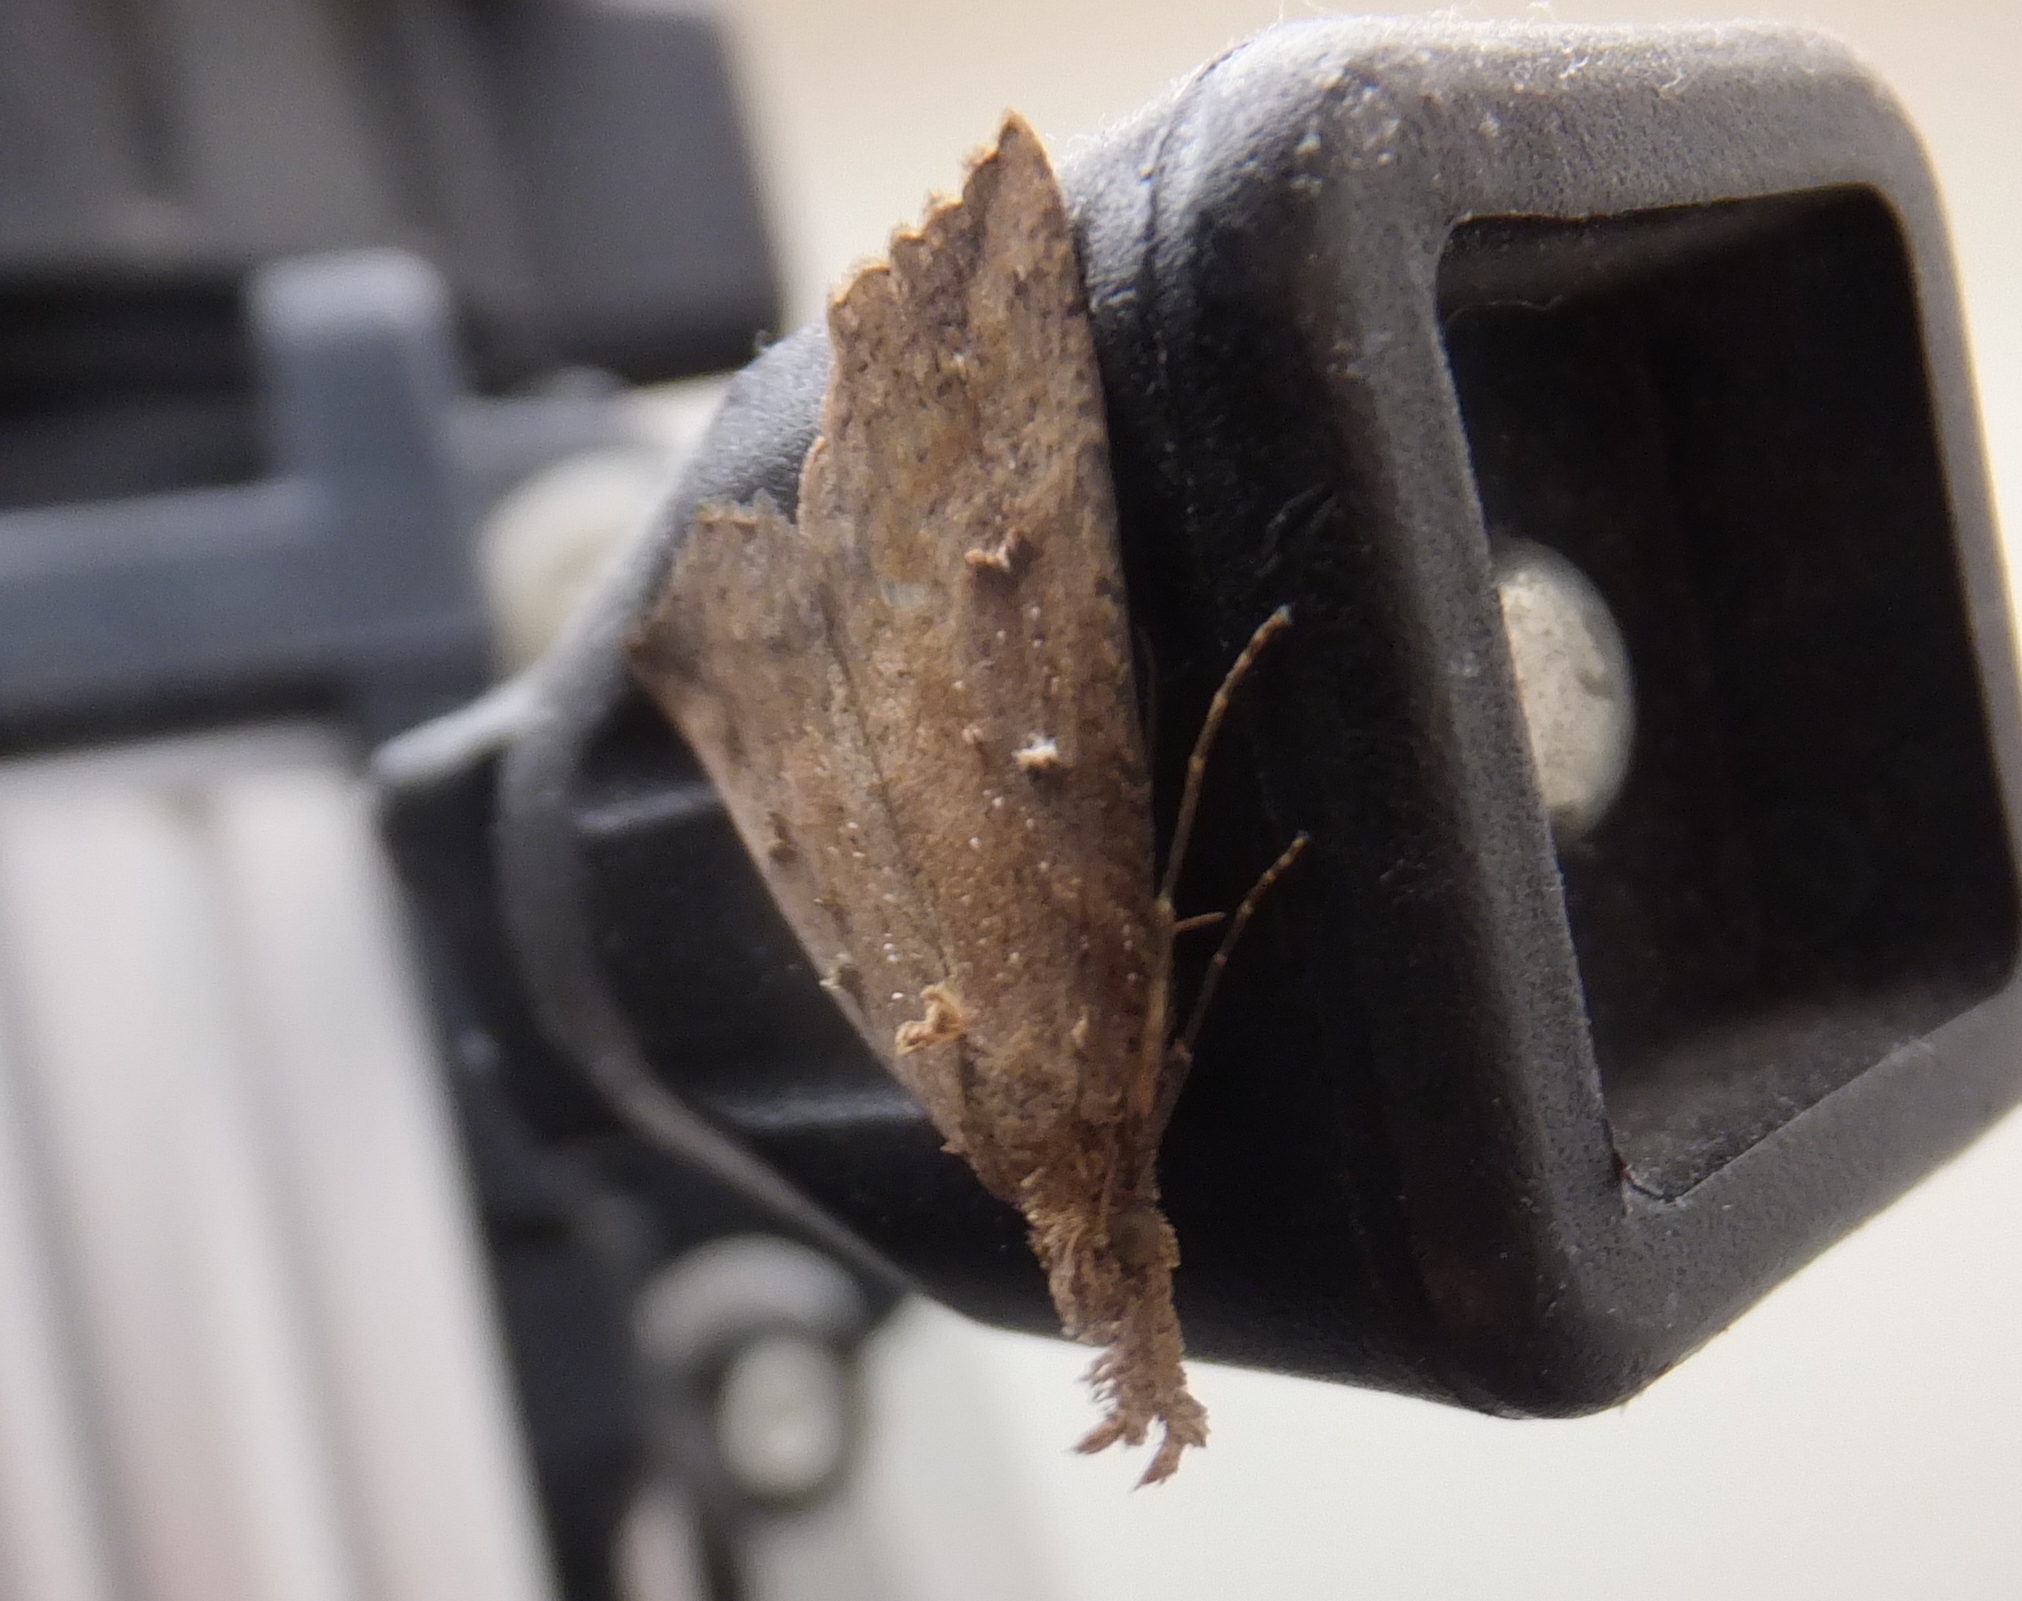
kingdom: Animalia
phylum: Arthropoda
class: Insecta
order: Lepidoptera
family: Erebidae
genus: Hypena
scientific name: Hypena rostralis
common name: Buttoned snout
